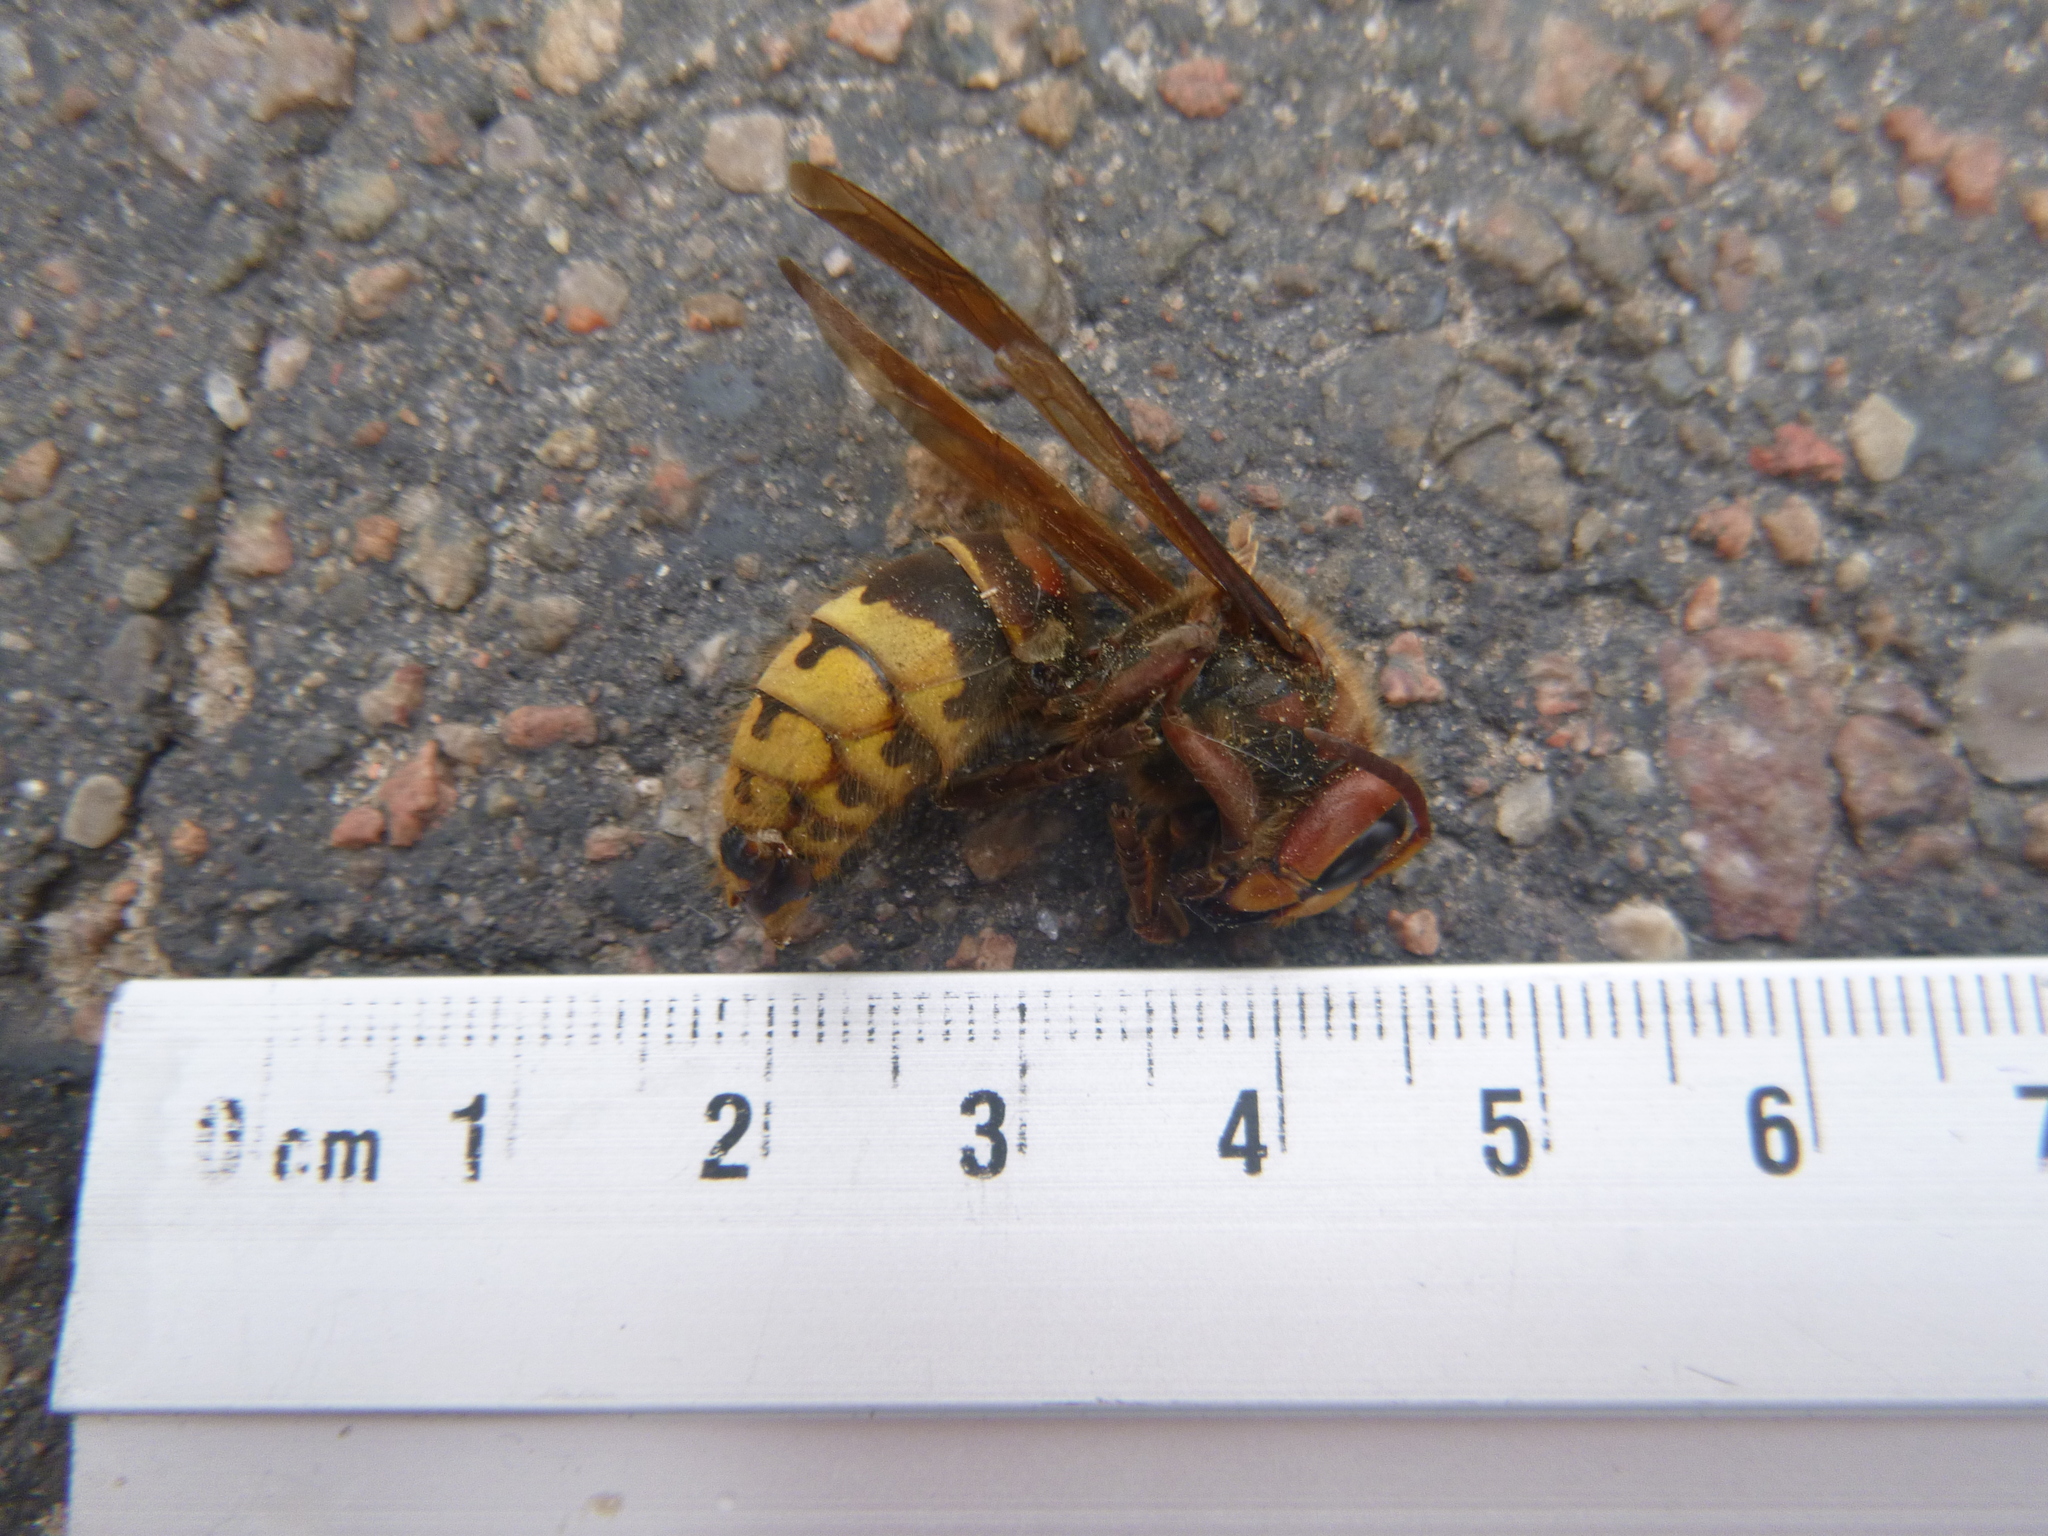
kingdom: Animalia
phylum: Arthropoda
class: Insecta
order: Hymenoptera
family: Vespidae
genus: Vespa
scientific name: Vespa crabro
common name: Hornet
